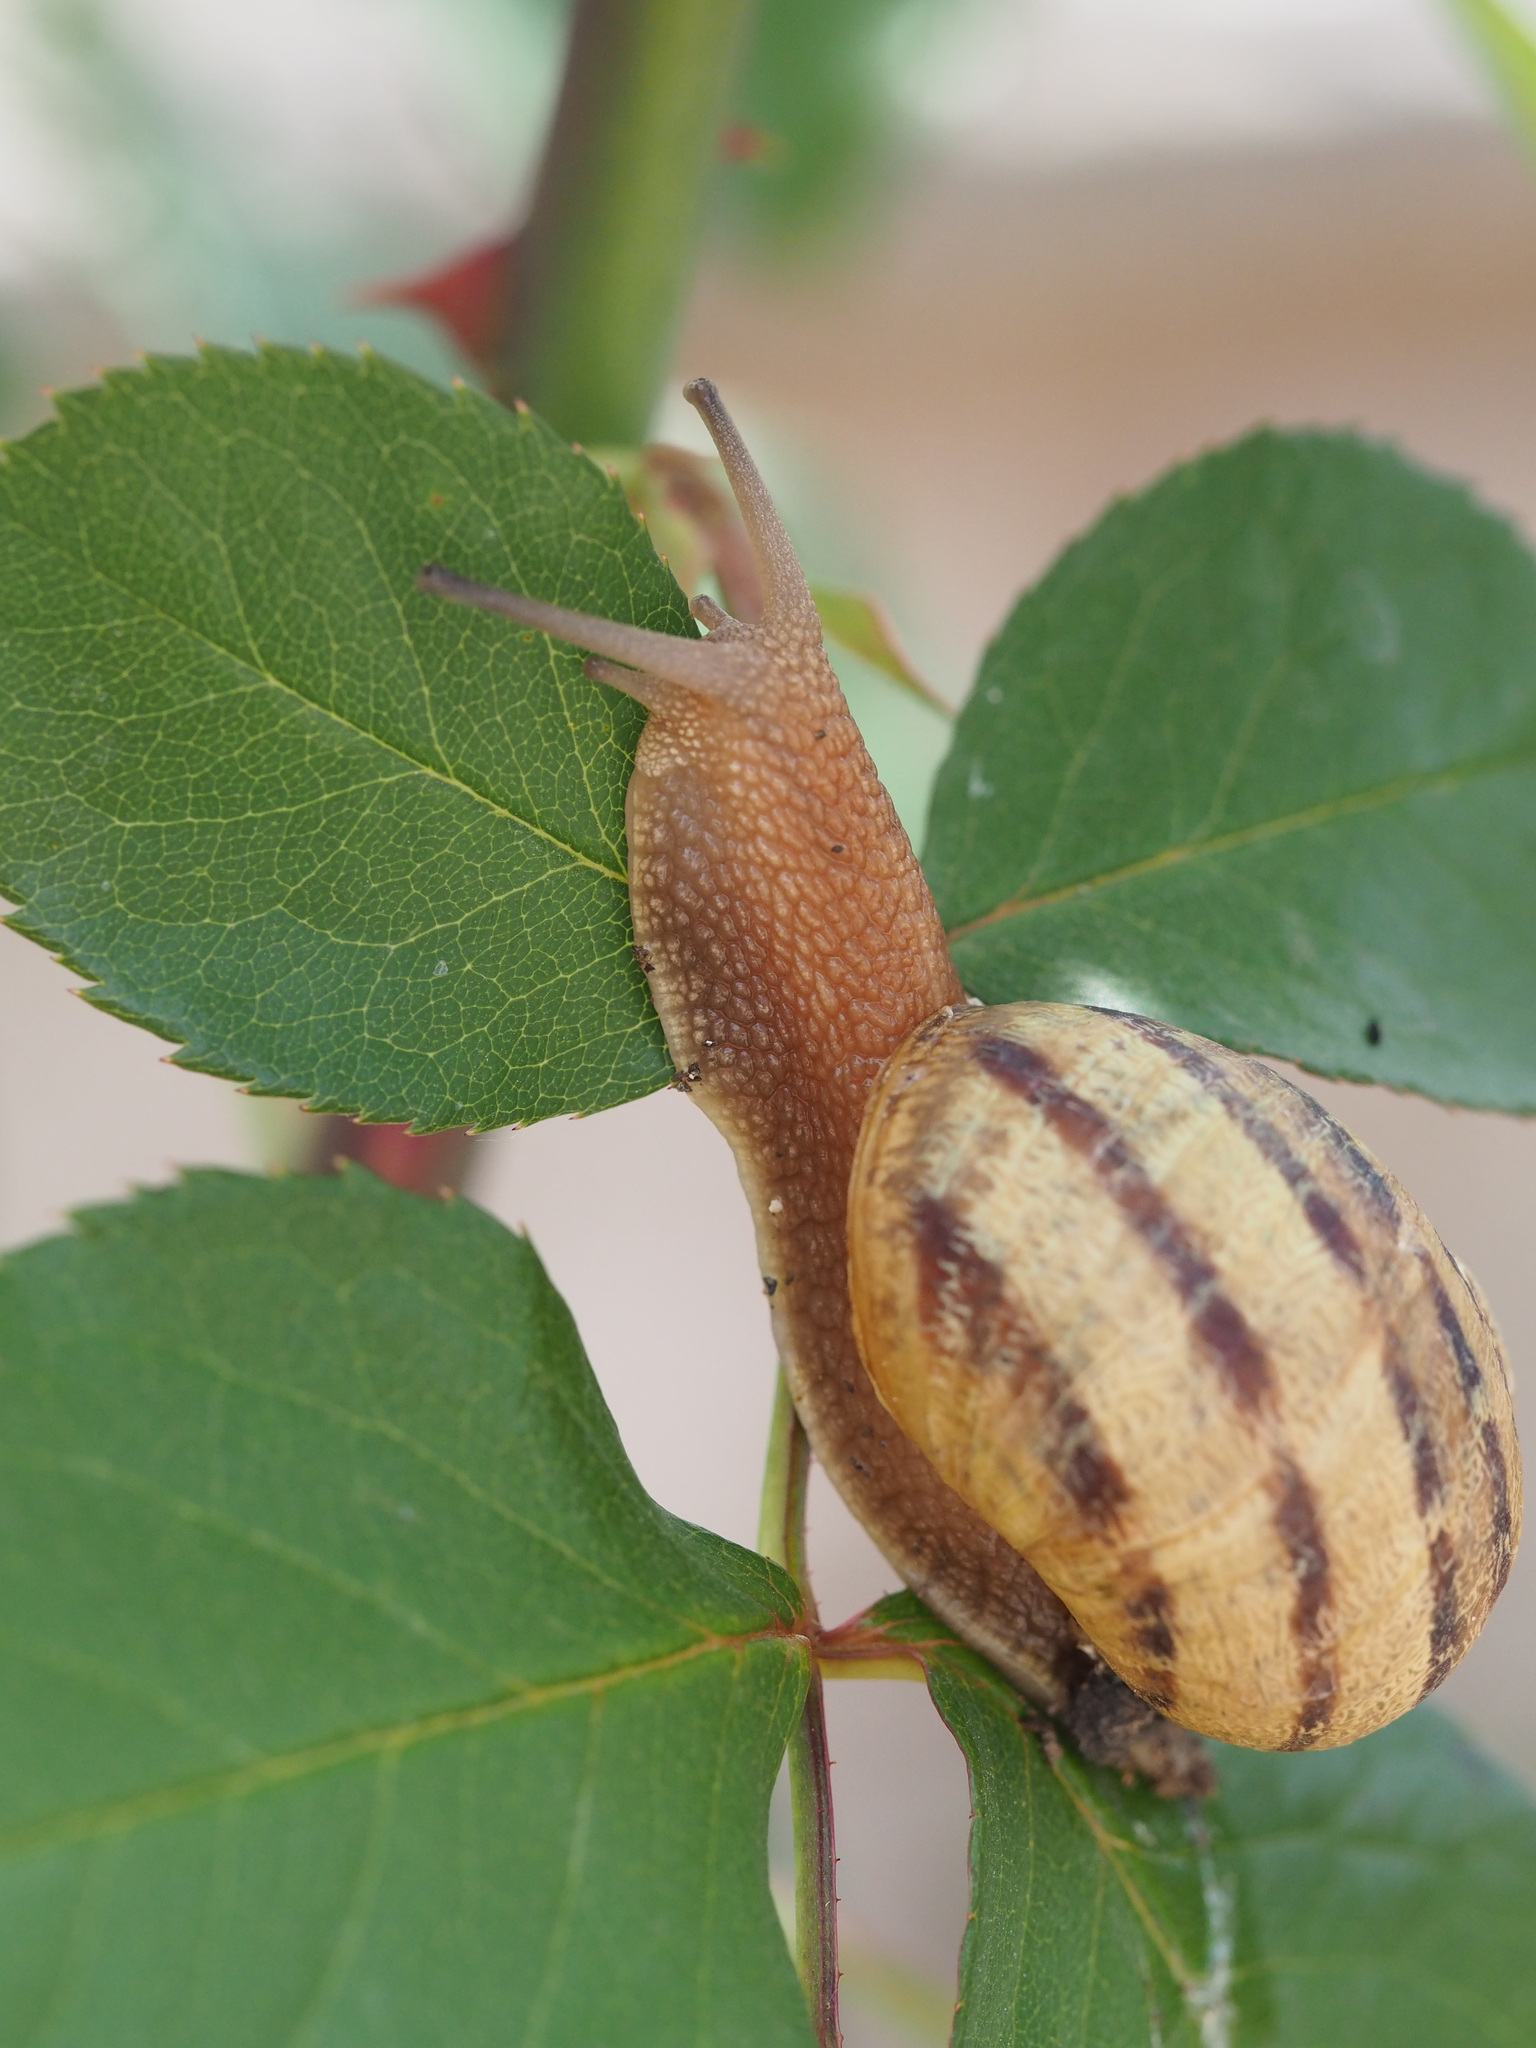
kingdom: Animalia
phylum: Mollusca
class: Gastropoda
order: Stylommatophora
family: Helicidae
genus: Cornu
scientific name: Cornu aspersum
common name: Brown garden snail
